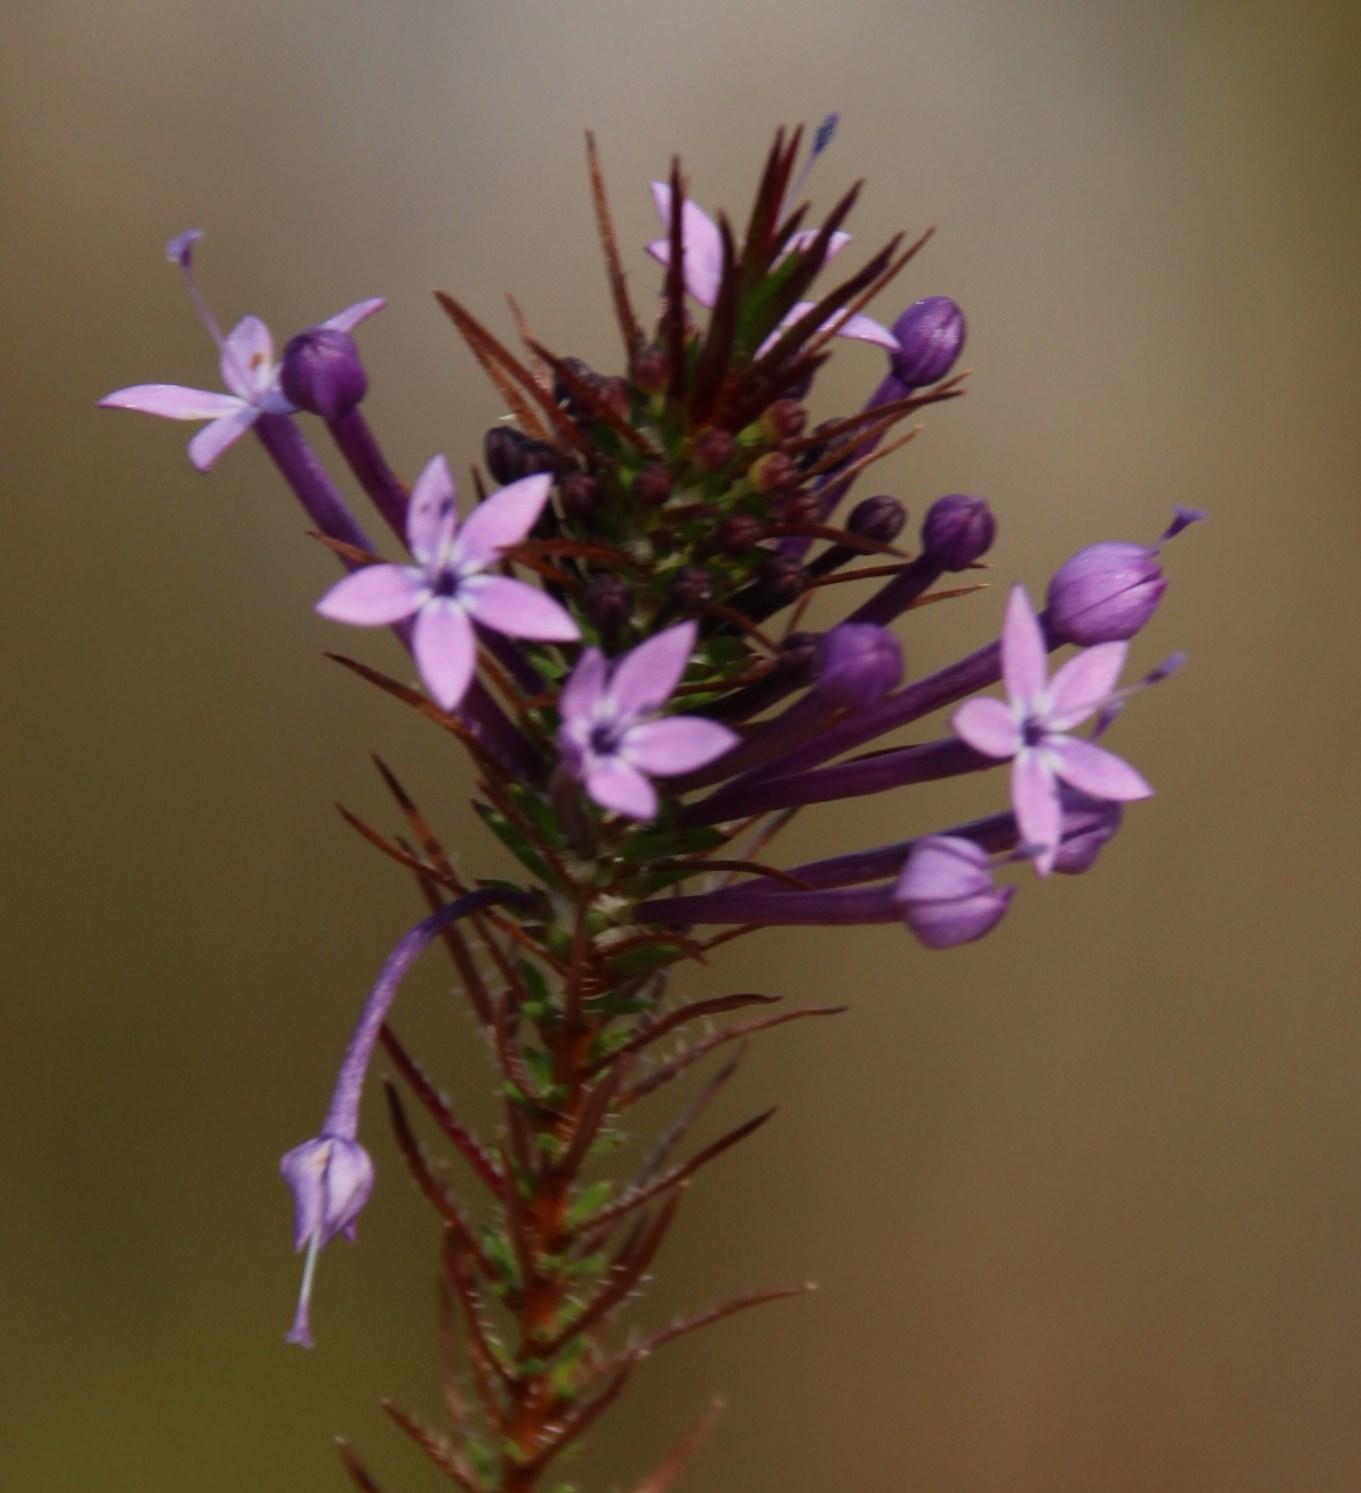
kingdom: Plantae
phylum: Tracheophyta
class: Magnoliopsida
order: Asterales
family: Campanulaceae
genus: Merciera
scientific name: Merciera eckloniana
